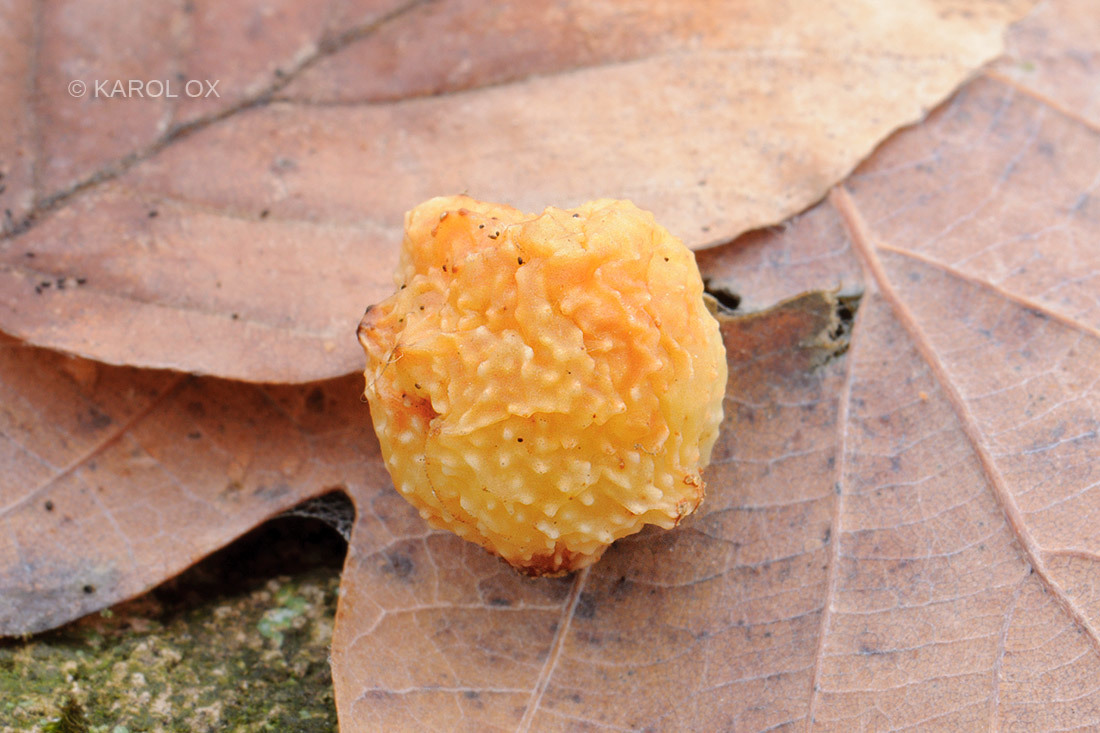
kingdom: Animalia
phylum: Arthropoda
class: Insecta
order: Hymenoptera
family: Cynipidae
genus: Cynips
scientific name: Cynips quercusfolii
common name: Cherry gall
